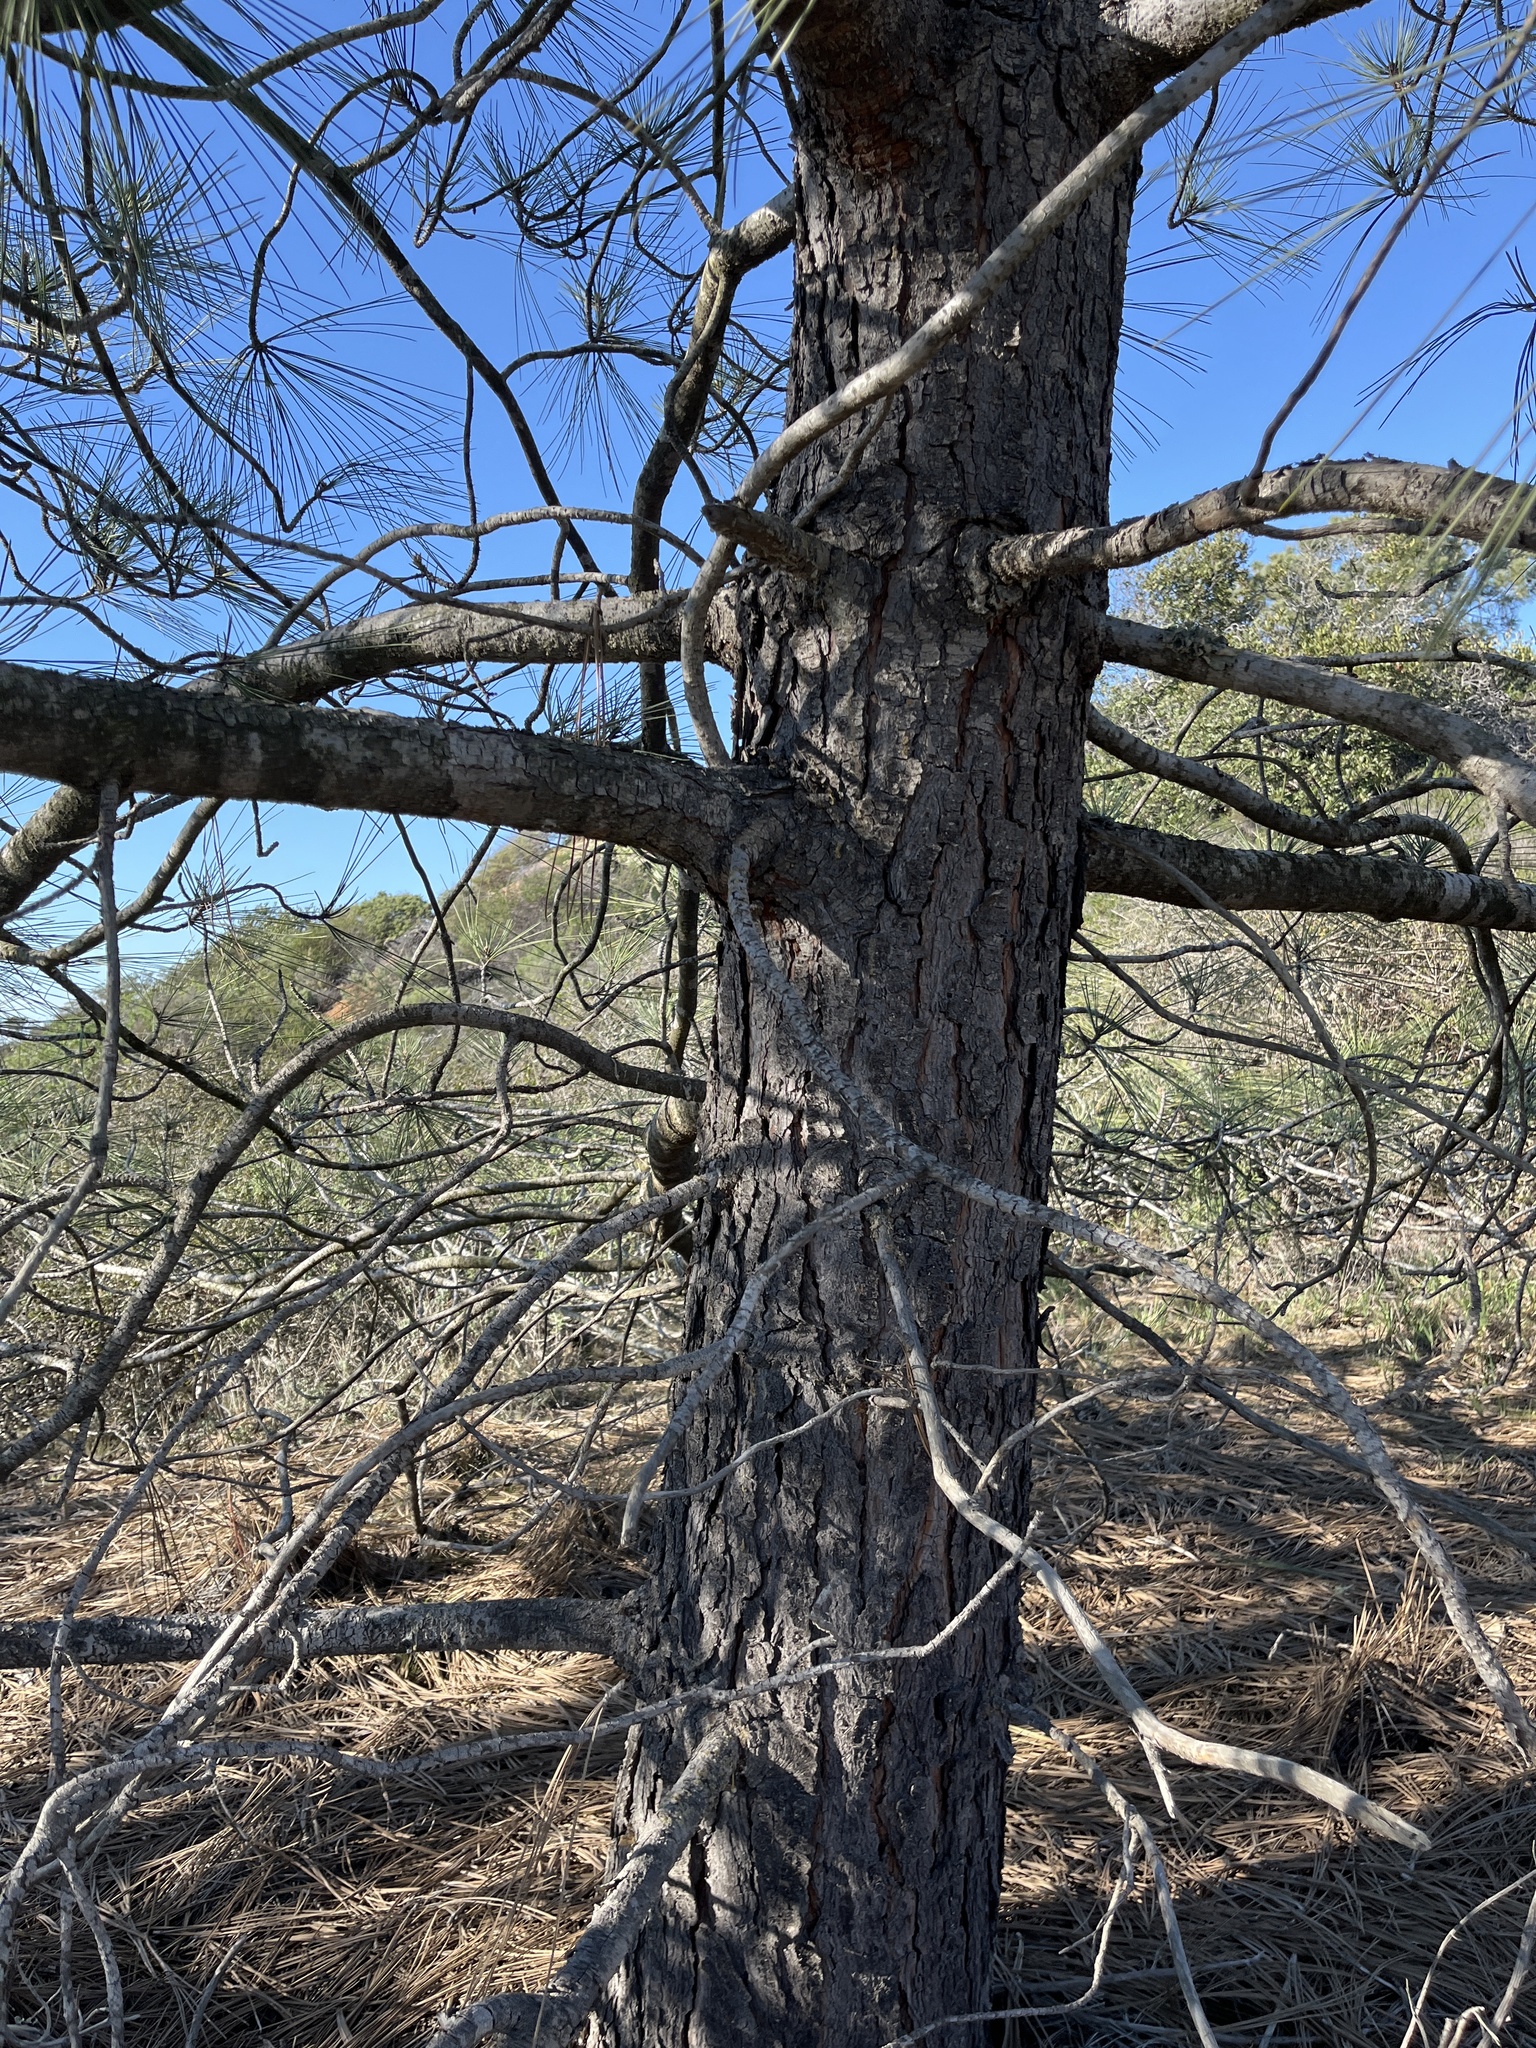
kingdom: Plantae
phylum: Tracheophyta
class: Pinopsida
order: Pinales
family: Pinaceae
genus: Pinus
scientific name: Pinus torreyana
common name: Torrey pine
